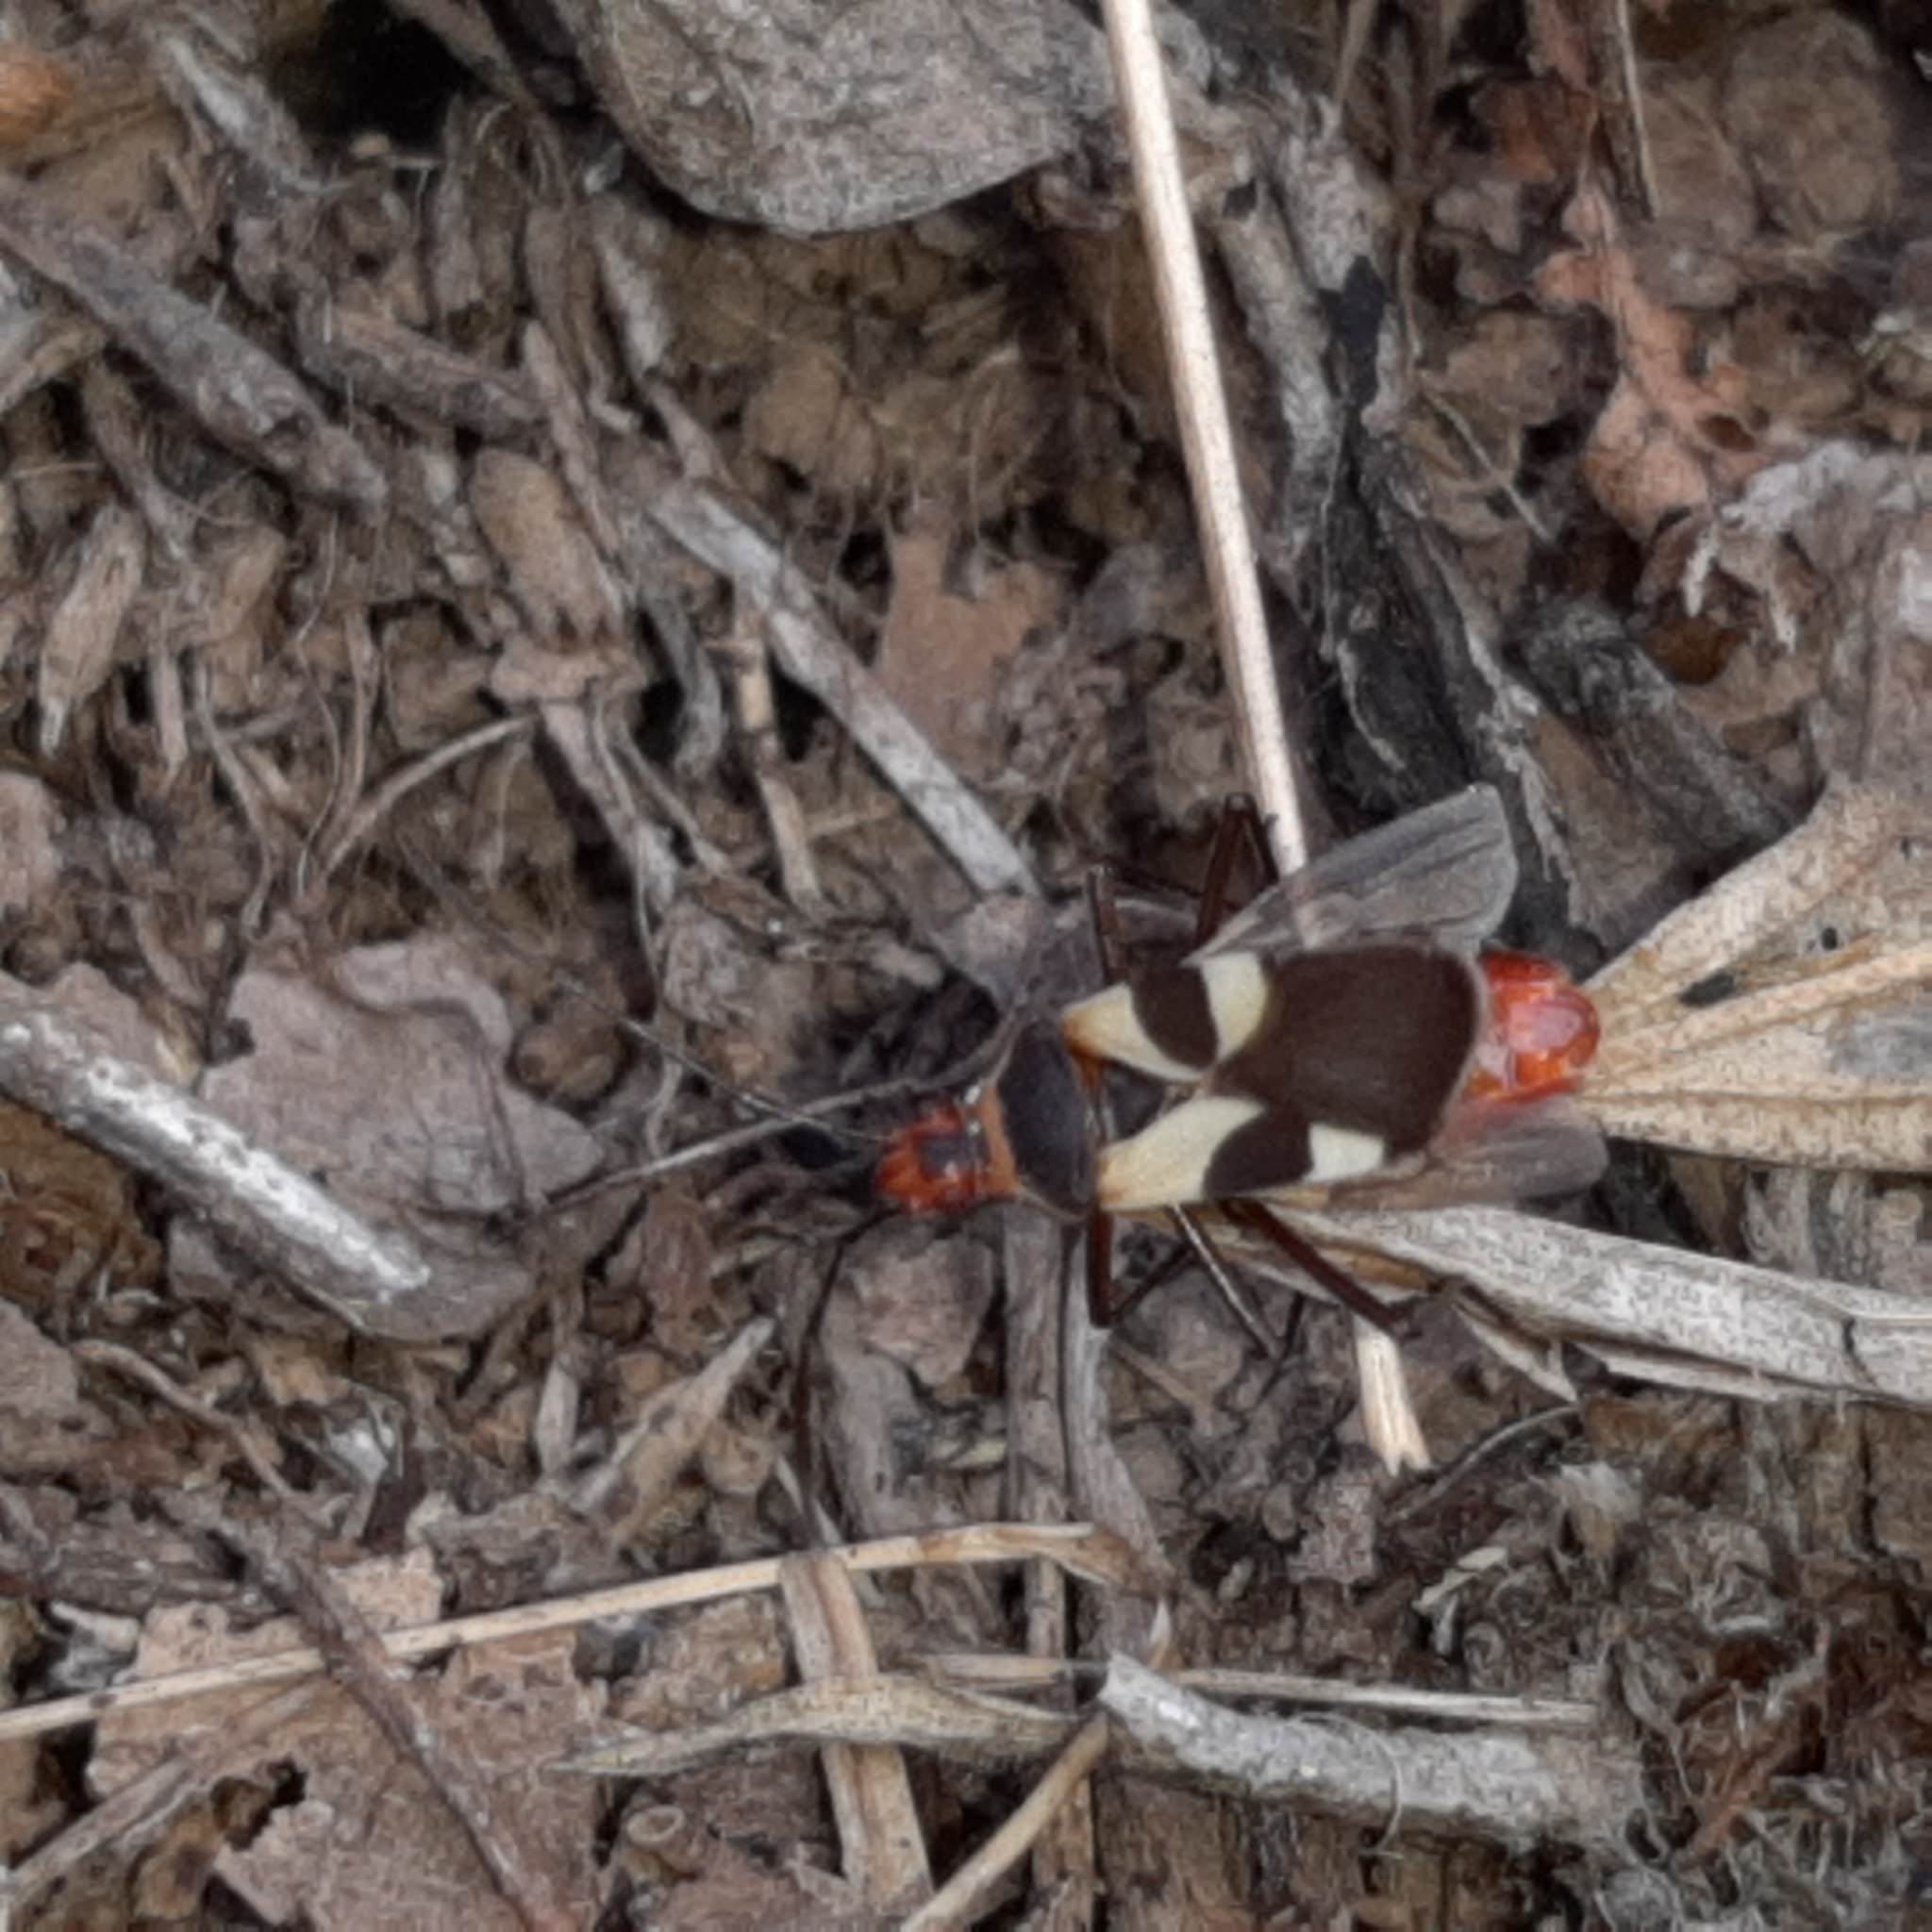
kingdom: Animalia
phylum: Arthropoda
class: Insecta
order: Hemiptera
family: Pyrrhocoridae
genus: Dysdercus
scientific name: Dysdercus lunulatus
